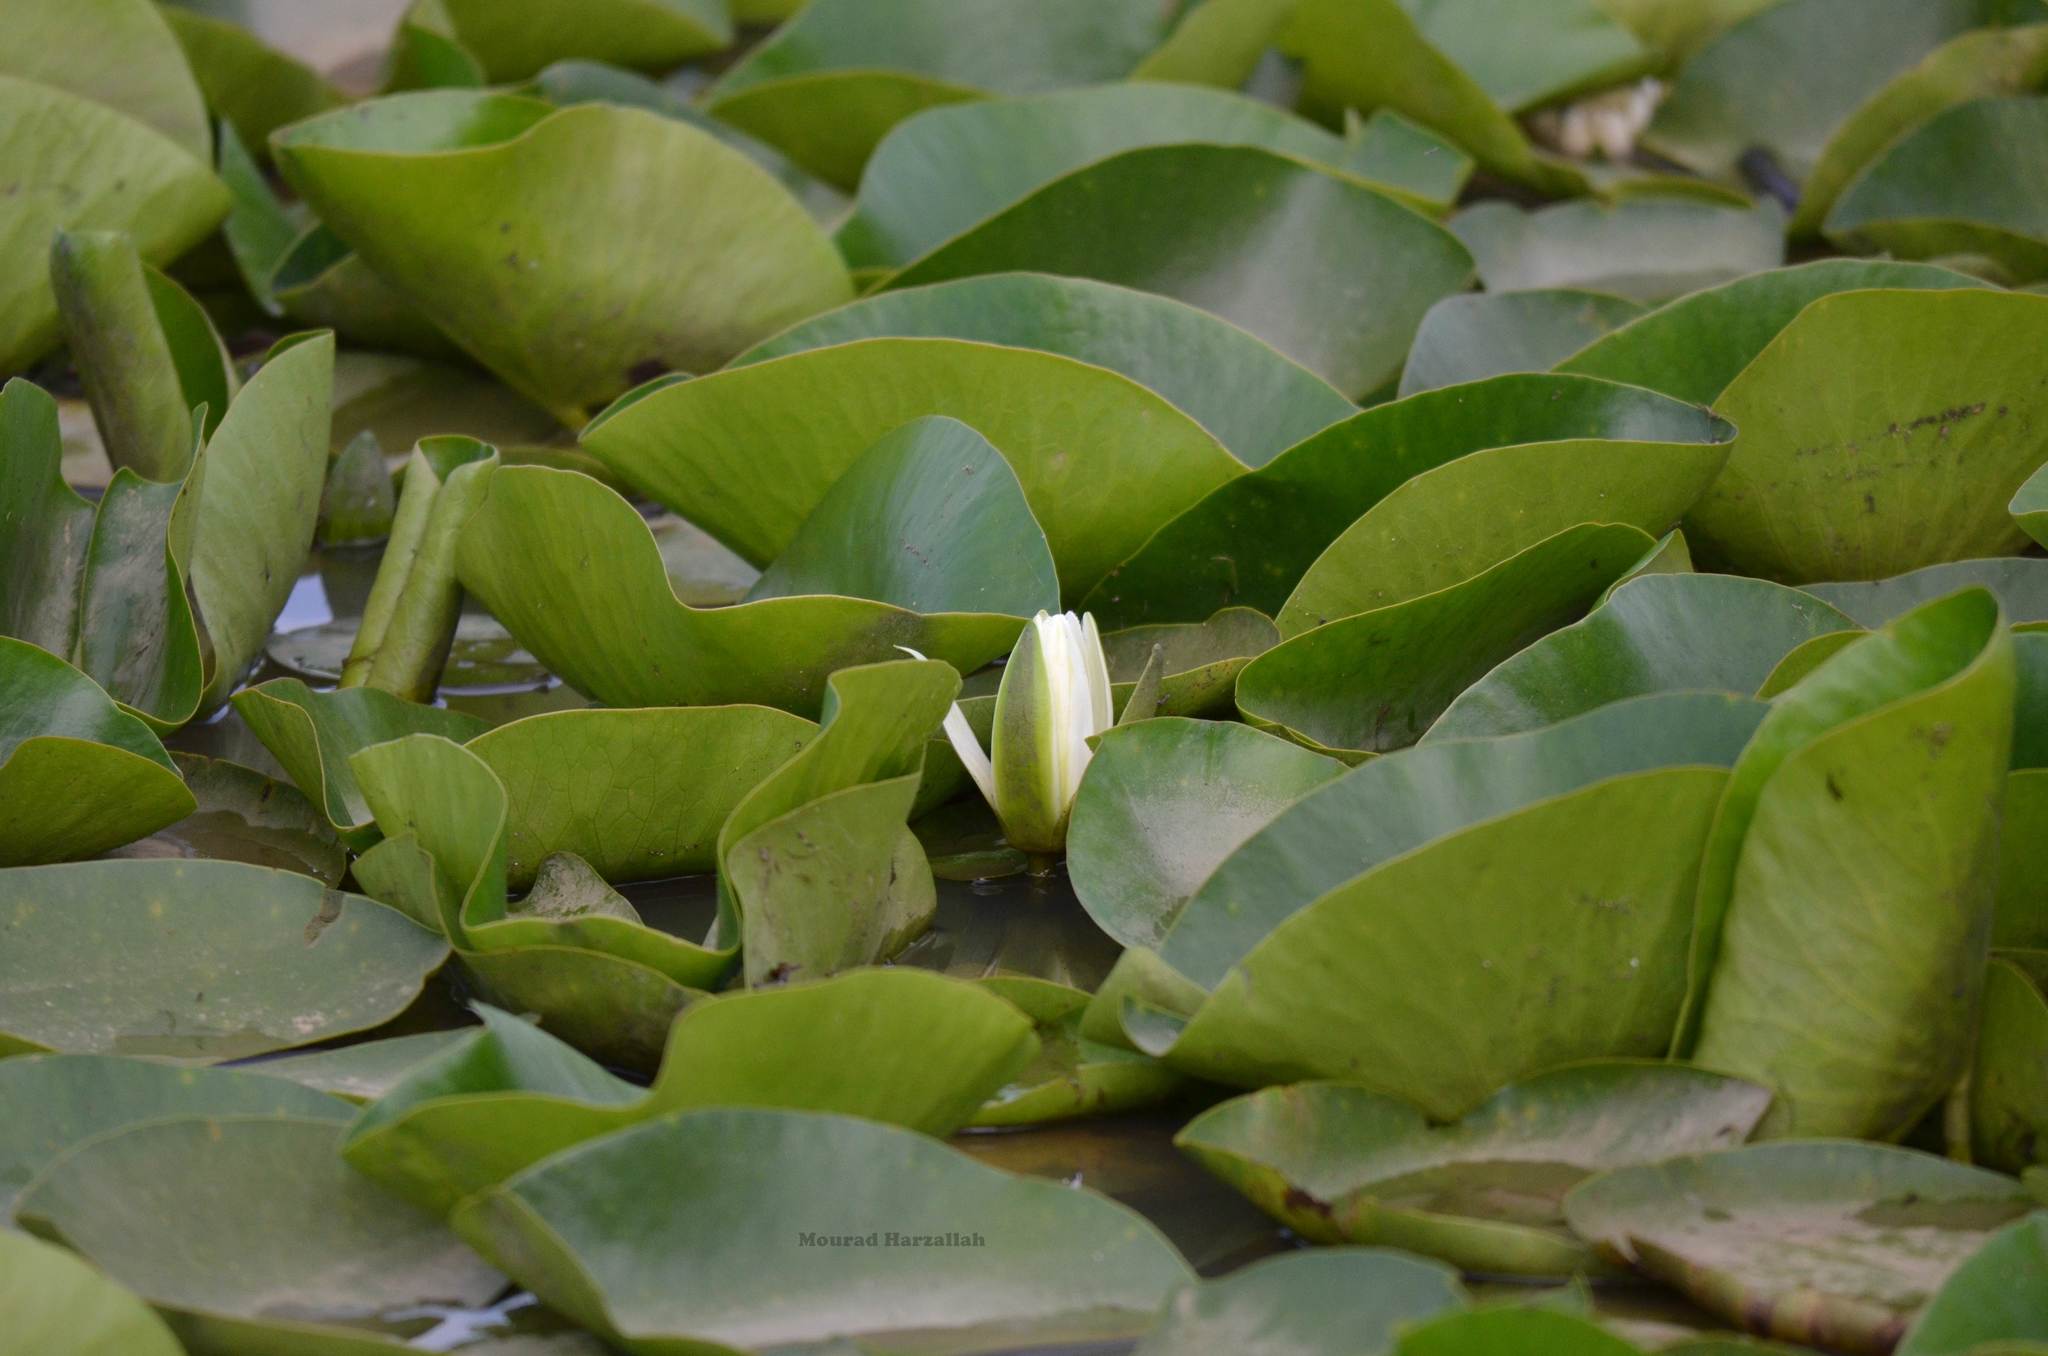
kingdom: Plantae
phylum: Tracheophyta
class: Magnoliopsida
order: Nymphaeales
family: Nymphaeaceae
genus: Nymphaea
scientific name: Nymphaea alba
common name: White water-lily
